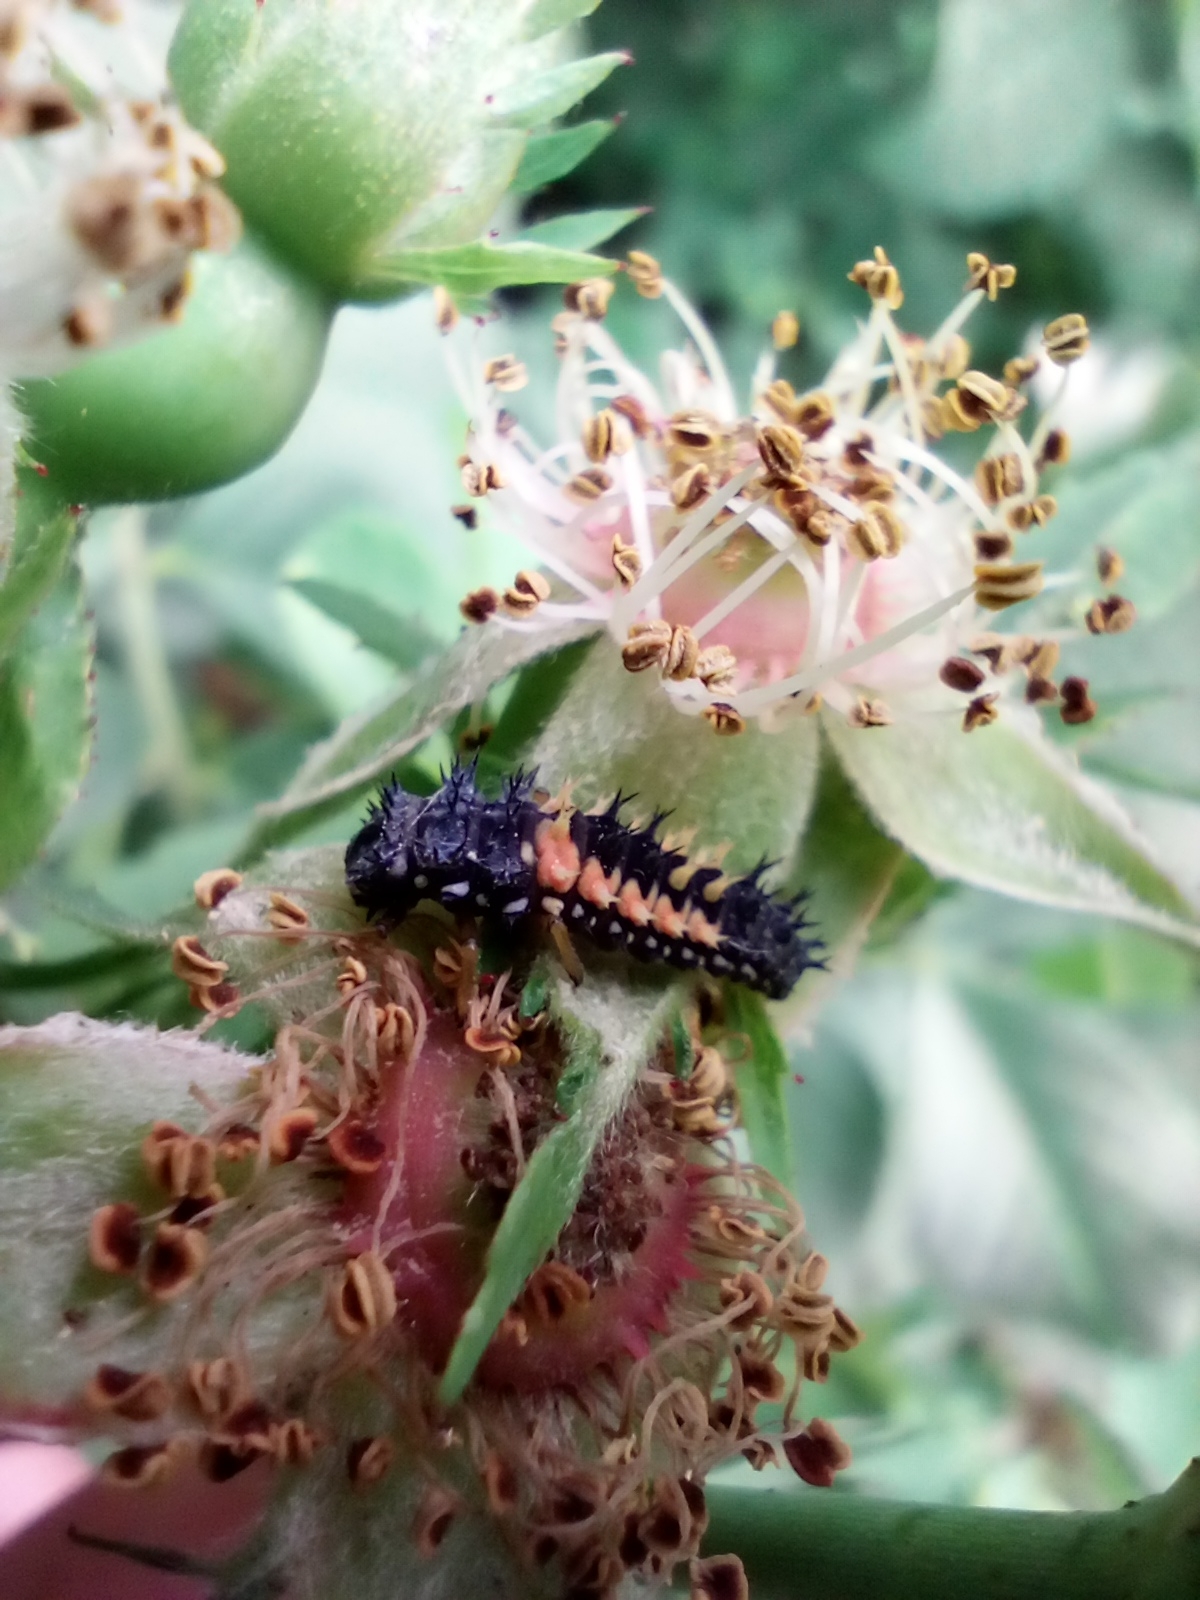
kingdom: Animalia
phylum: Arthropoda
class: Insecta
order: Coleoptera
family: Coccinellidae
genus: Harmonia
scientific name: Harmonia axyridis
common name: Harlequin ladybird
